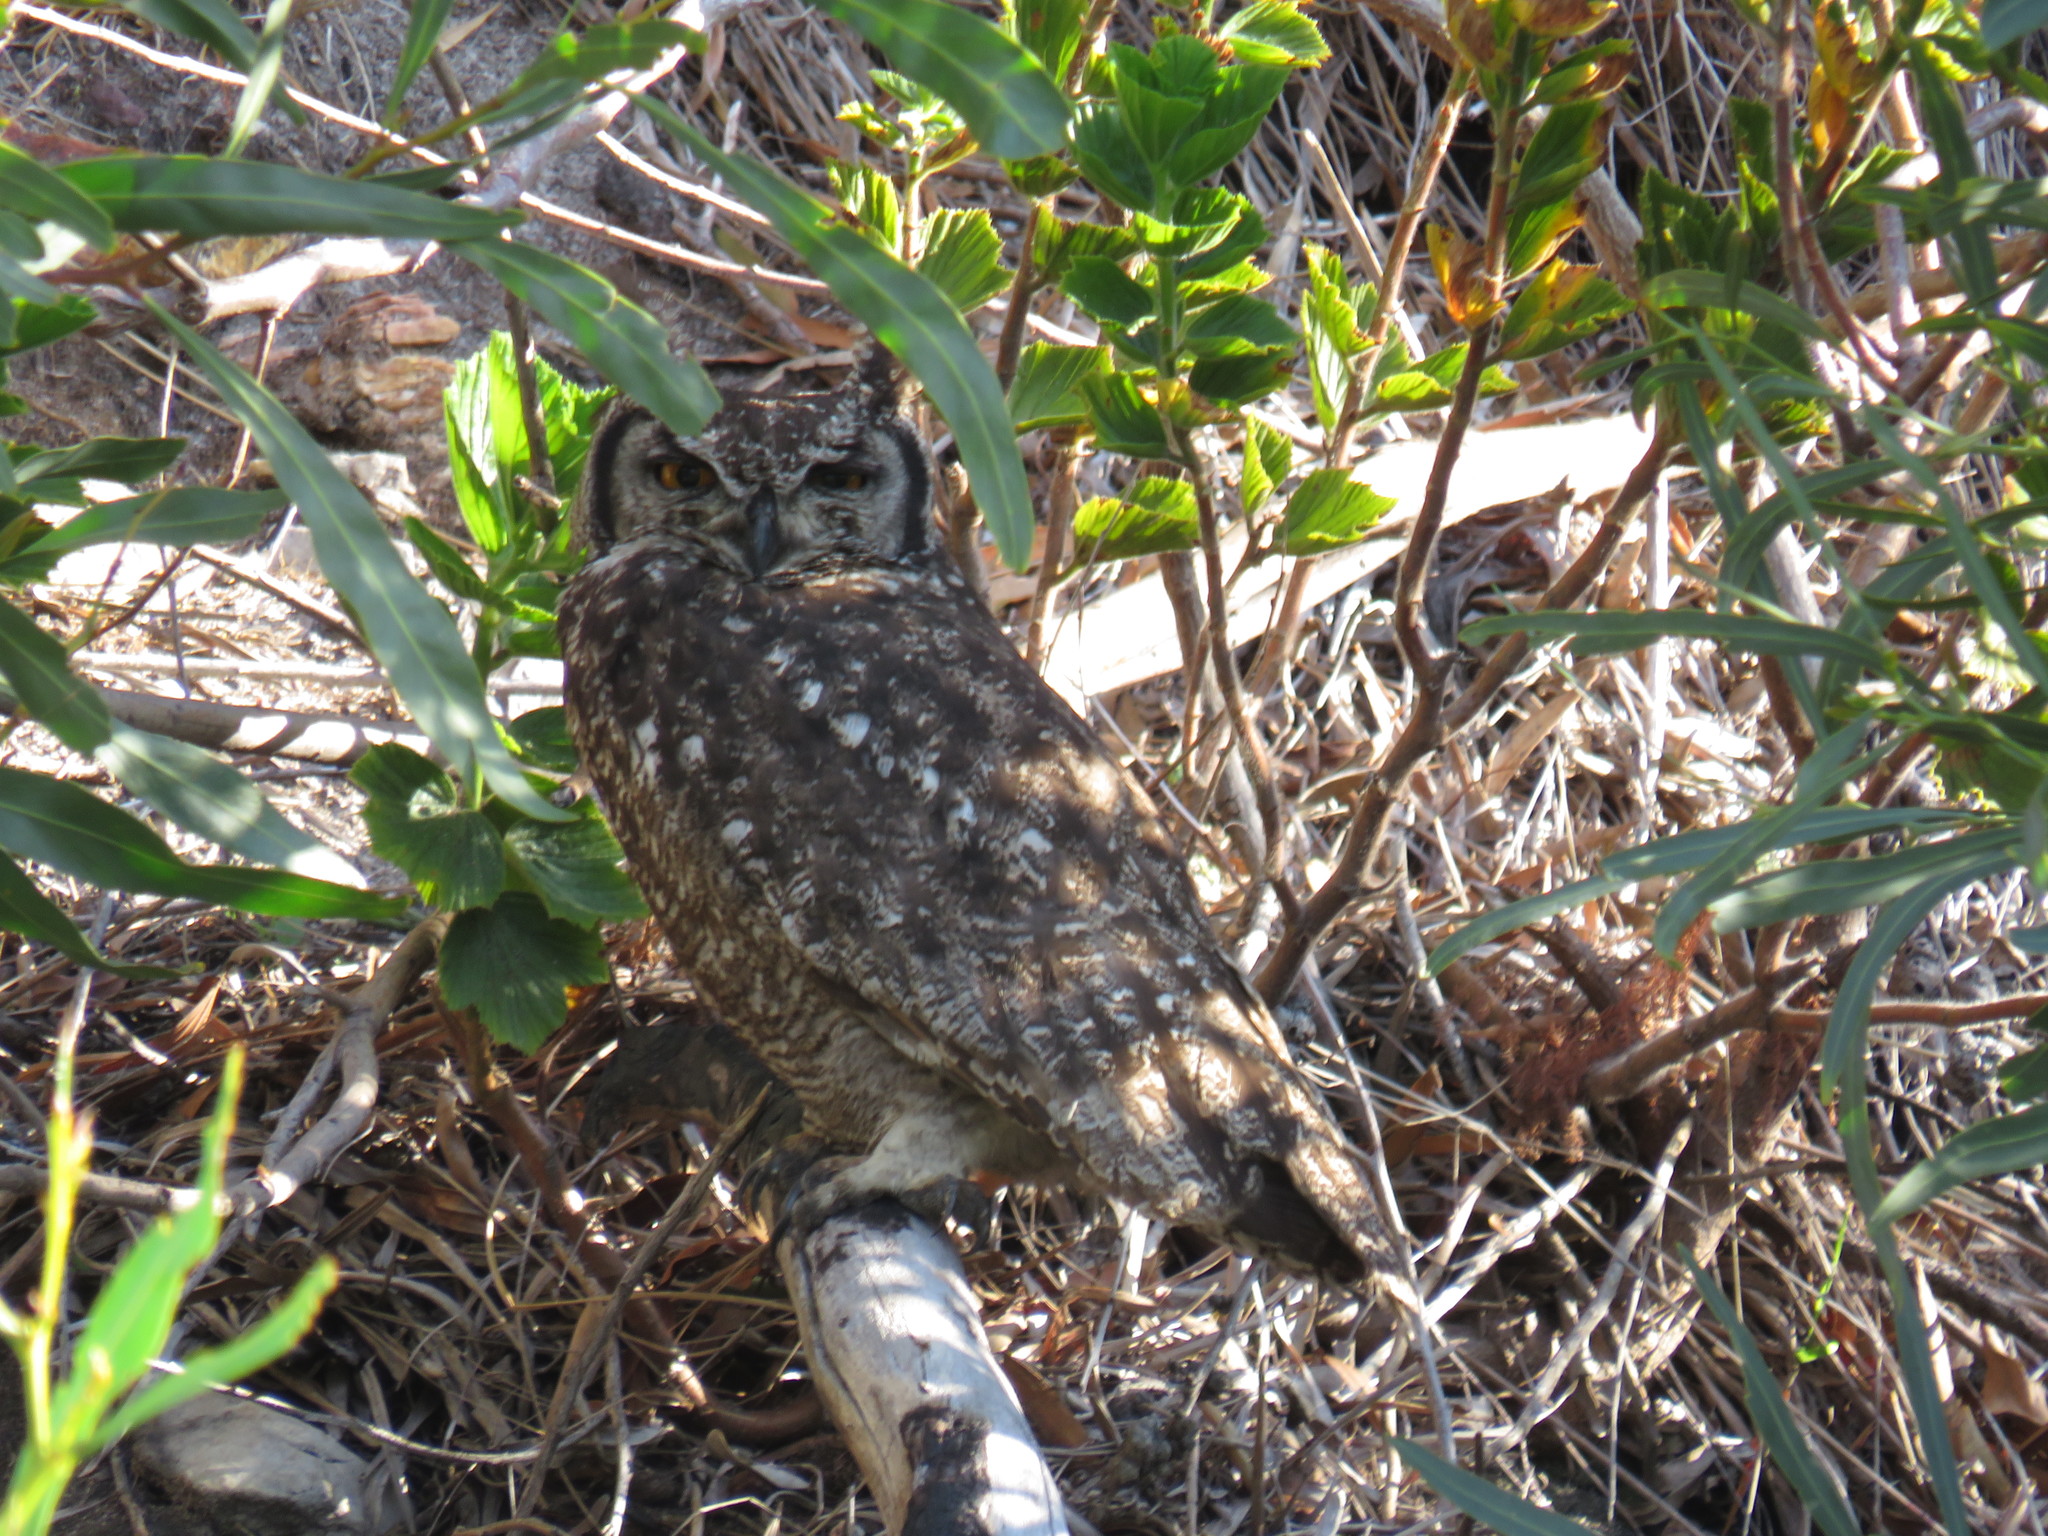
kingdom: Animalia
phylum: Chordata
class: Aves
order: Strigiformes
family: Strigidae
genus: Bubo
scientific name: Bubo africanus
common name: Spotted eagle-owl
